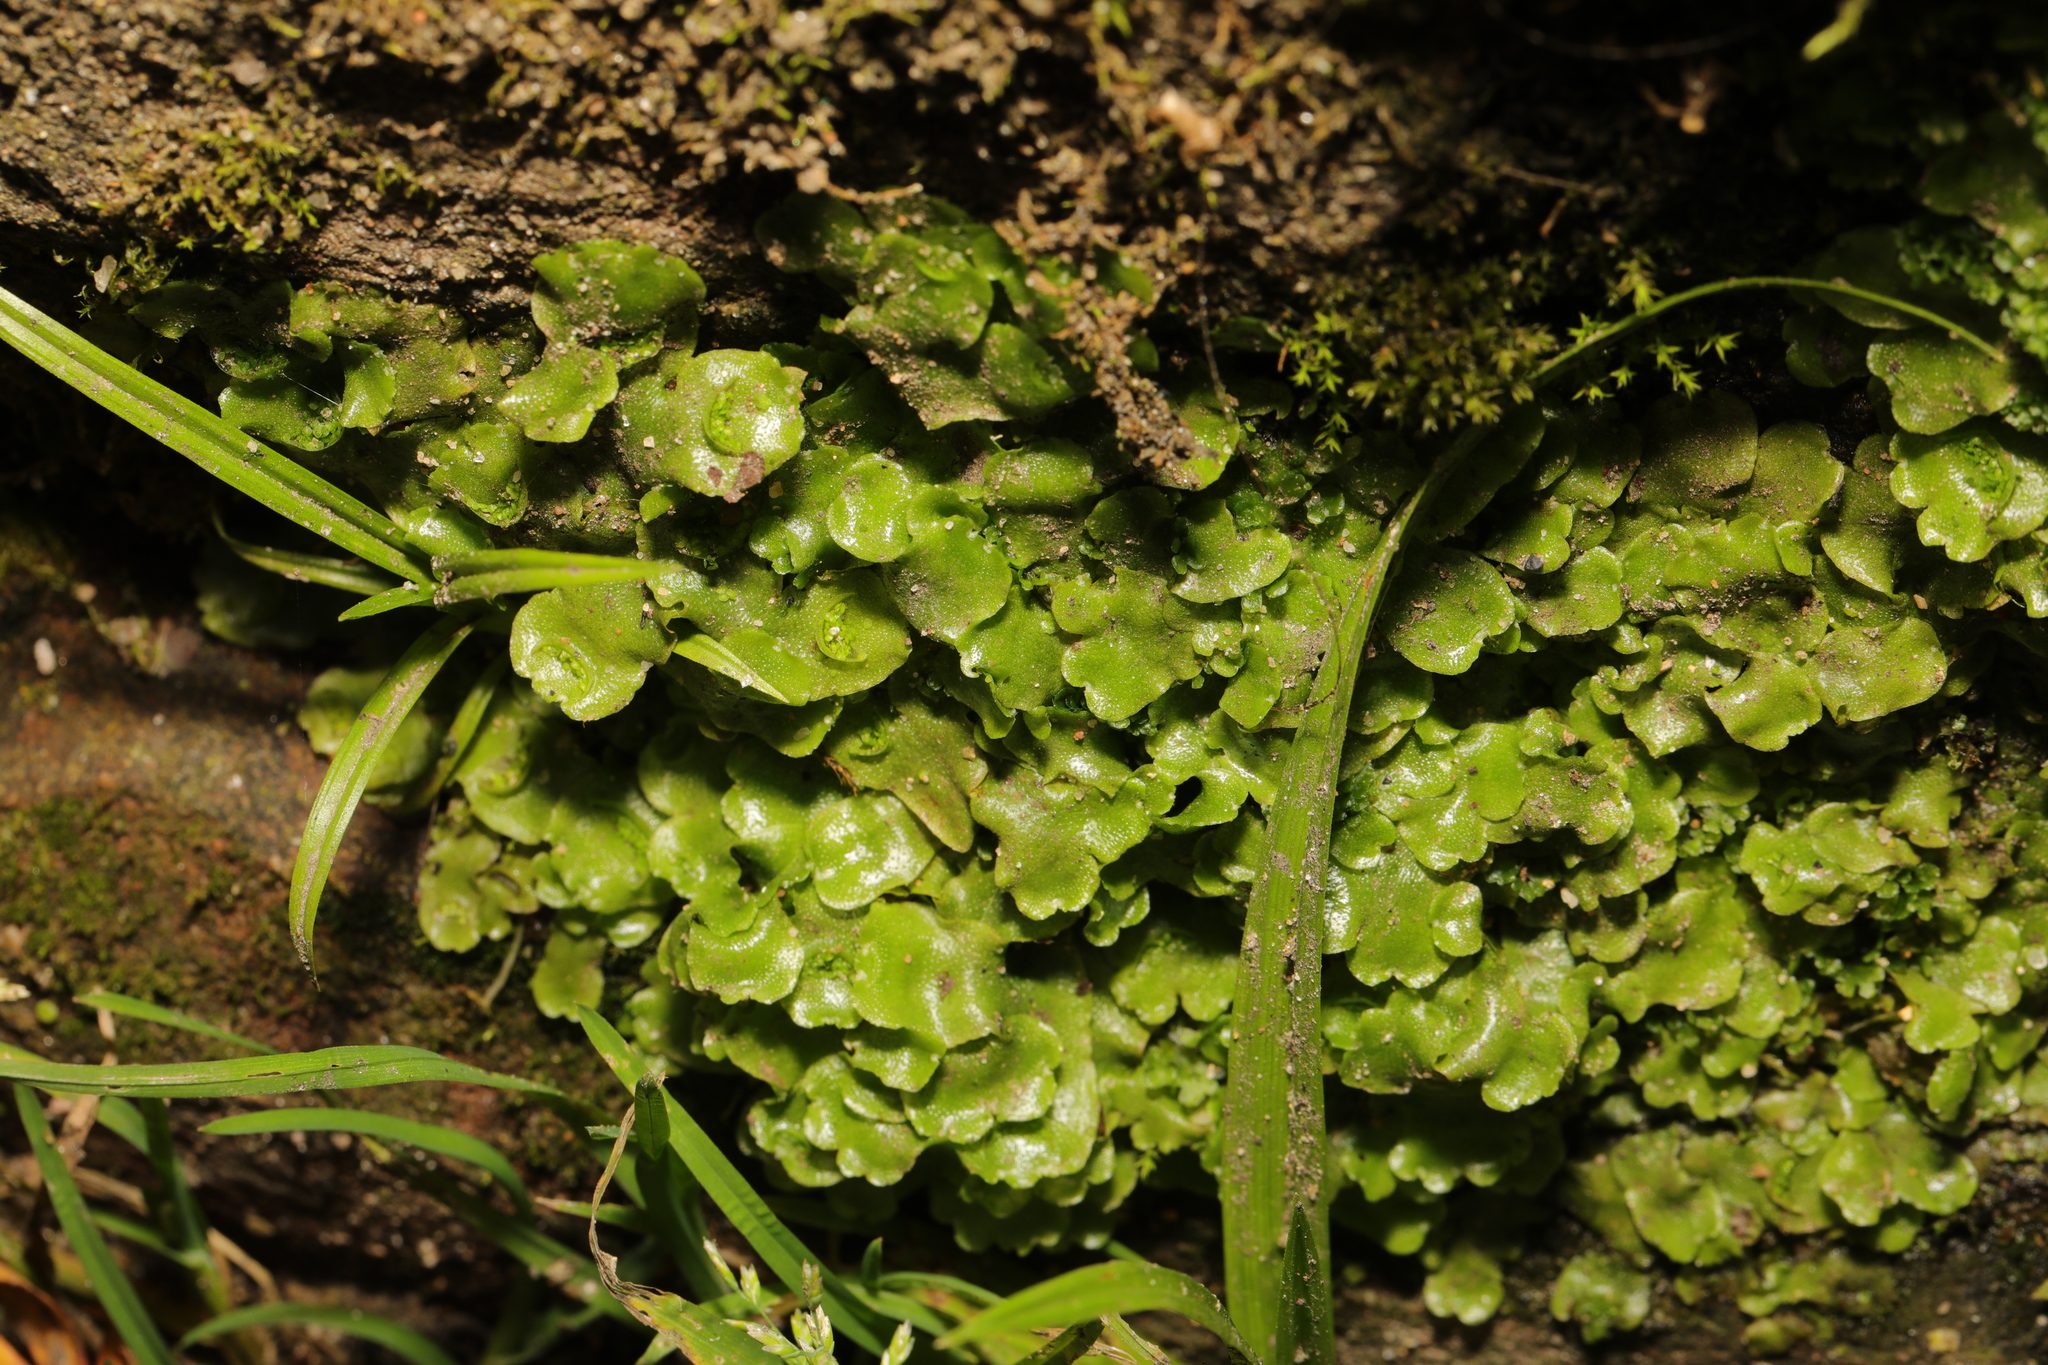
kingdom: Plantae
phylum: Marchantiophyta
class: Marchantiopsida
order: Lunulariales
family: Lunulariaceae
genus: Lunularia
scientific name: Lunularia cruciata
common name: Crescent-cup liverwort
